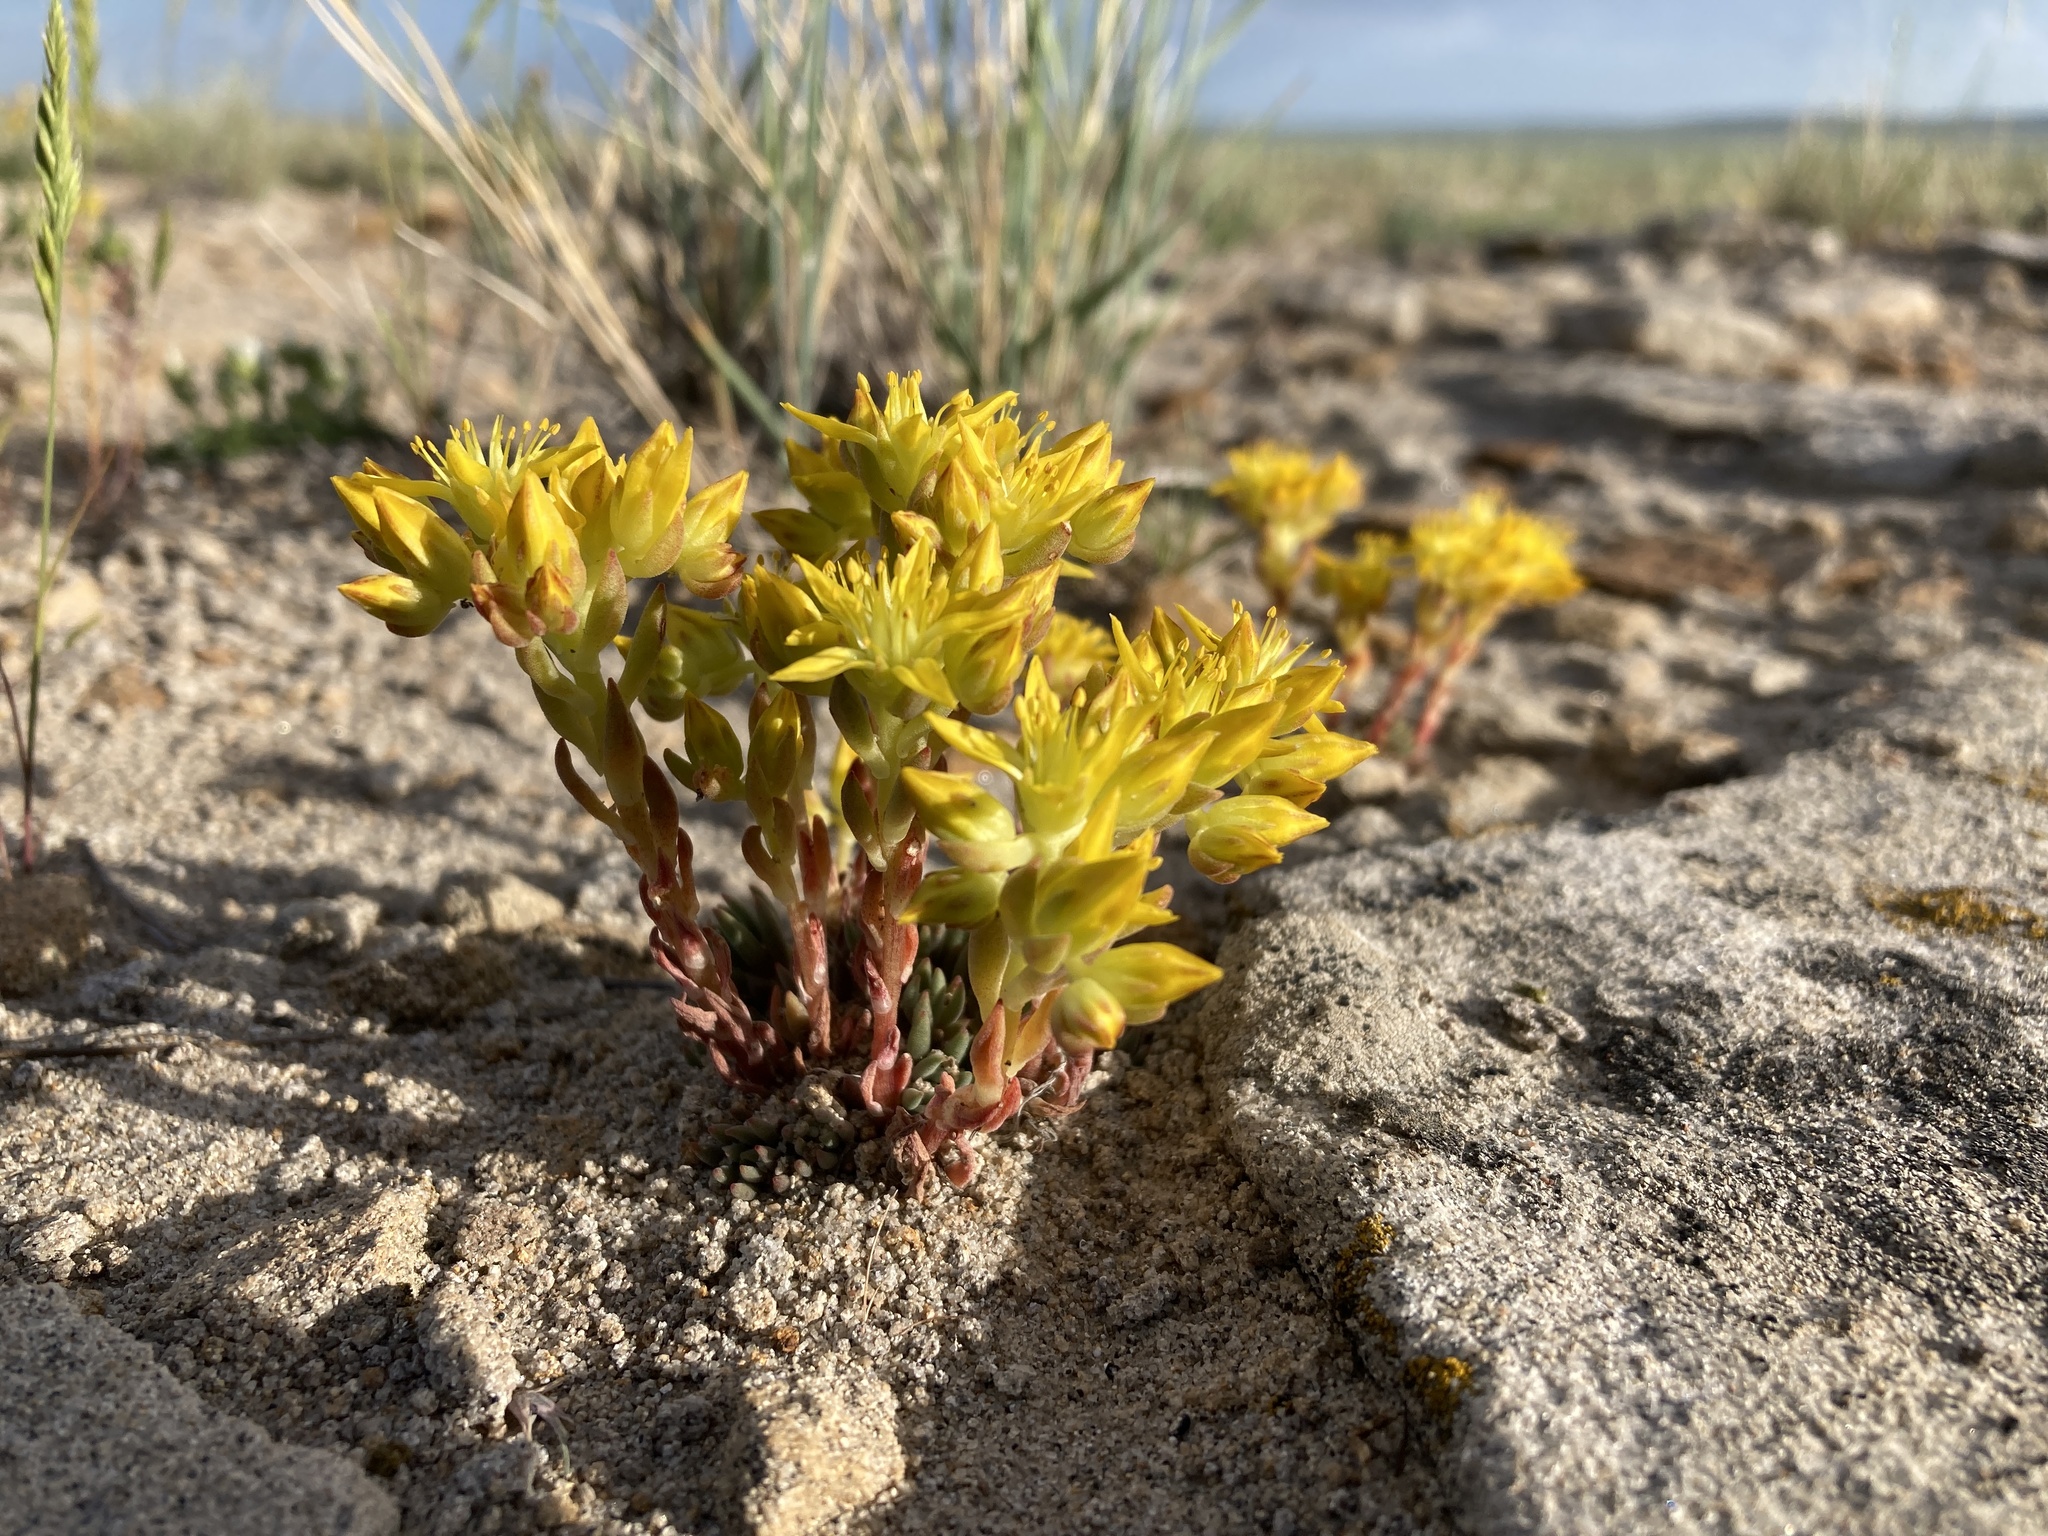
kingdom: Plantae
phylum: Tracheophyta
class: Magnoliopsida
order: Saxifragales
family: Crassulaceae
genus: Sedum
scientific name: Sedum lanceolatum
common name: Common stonecrop
